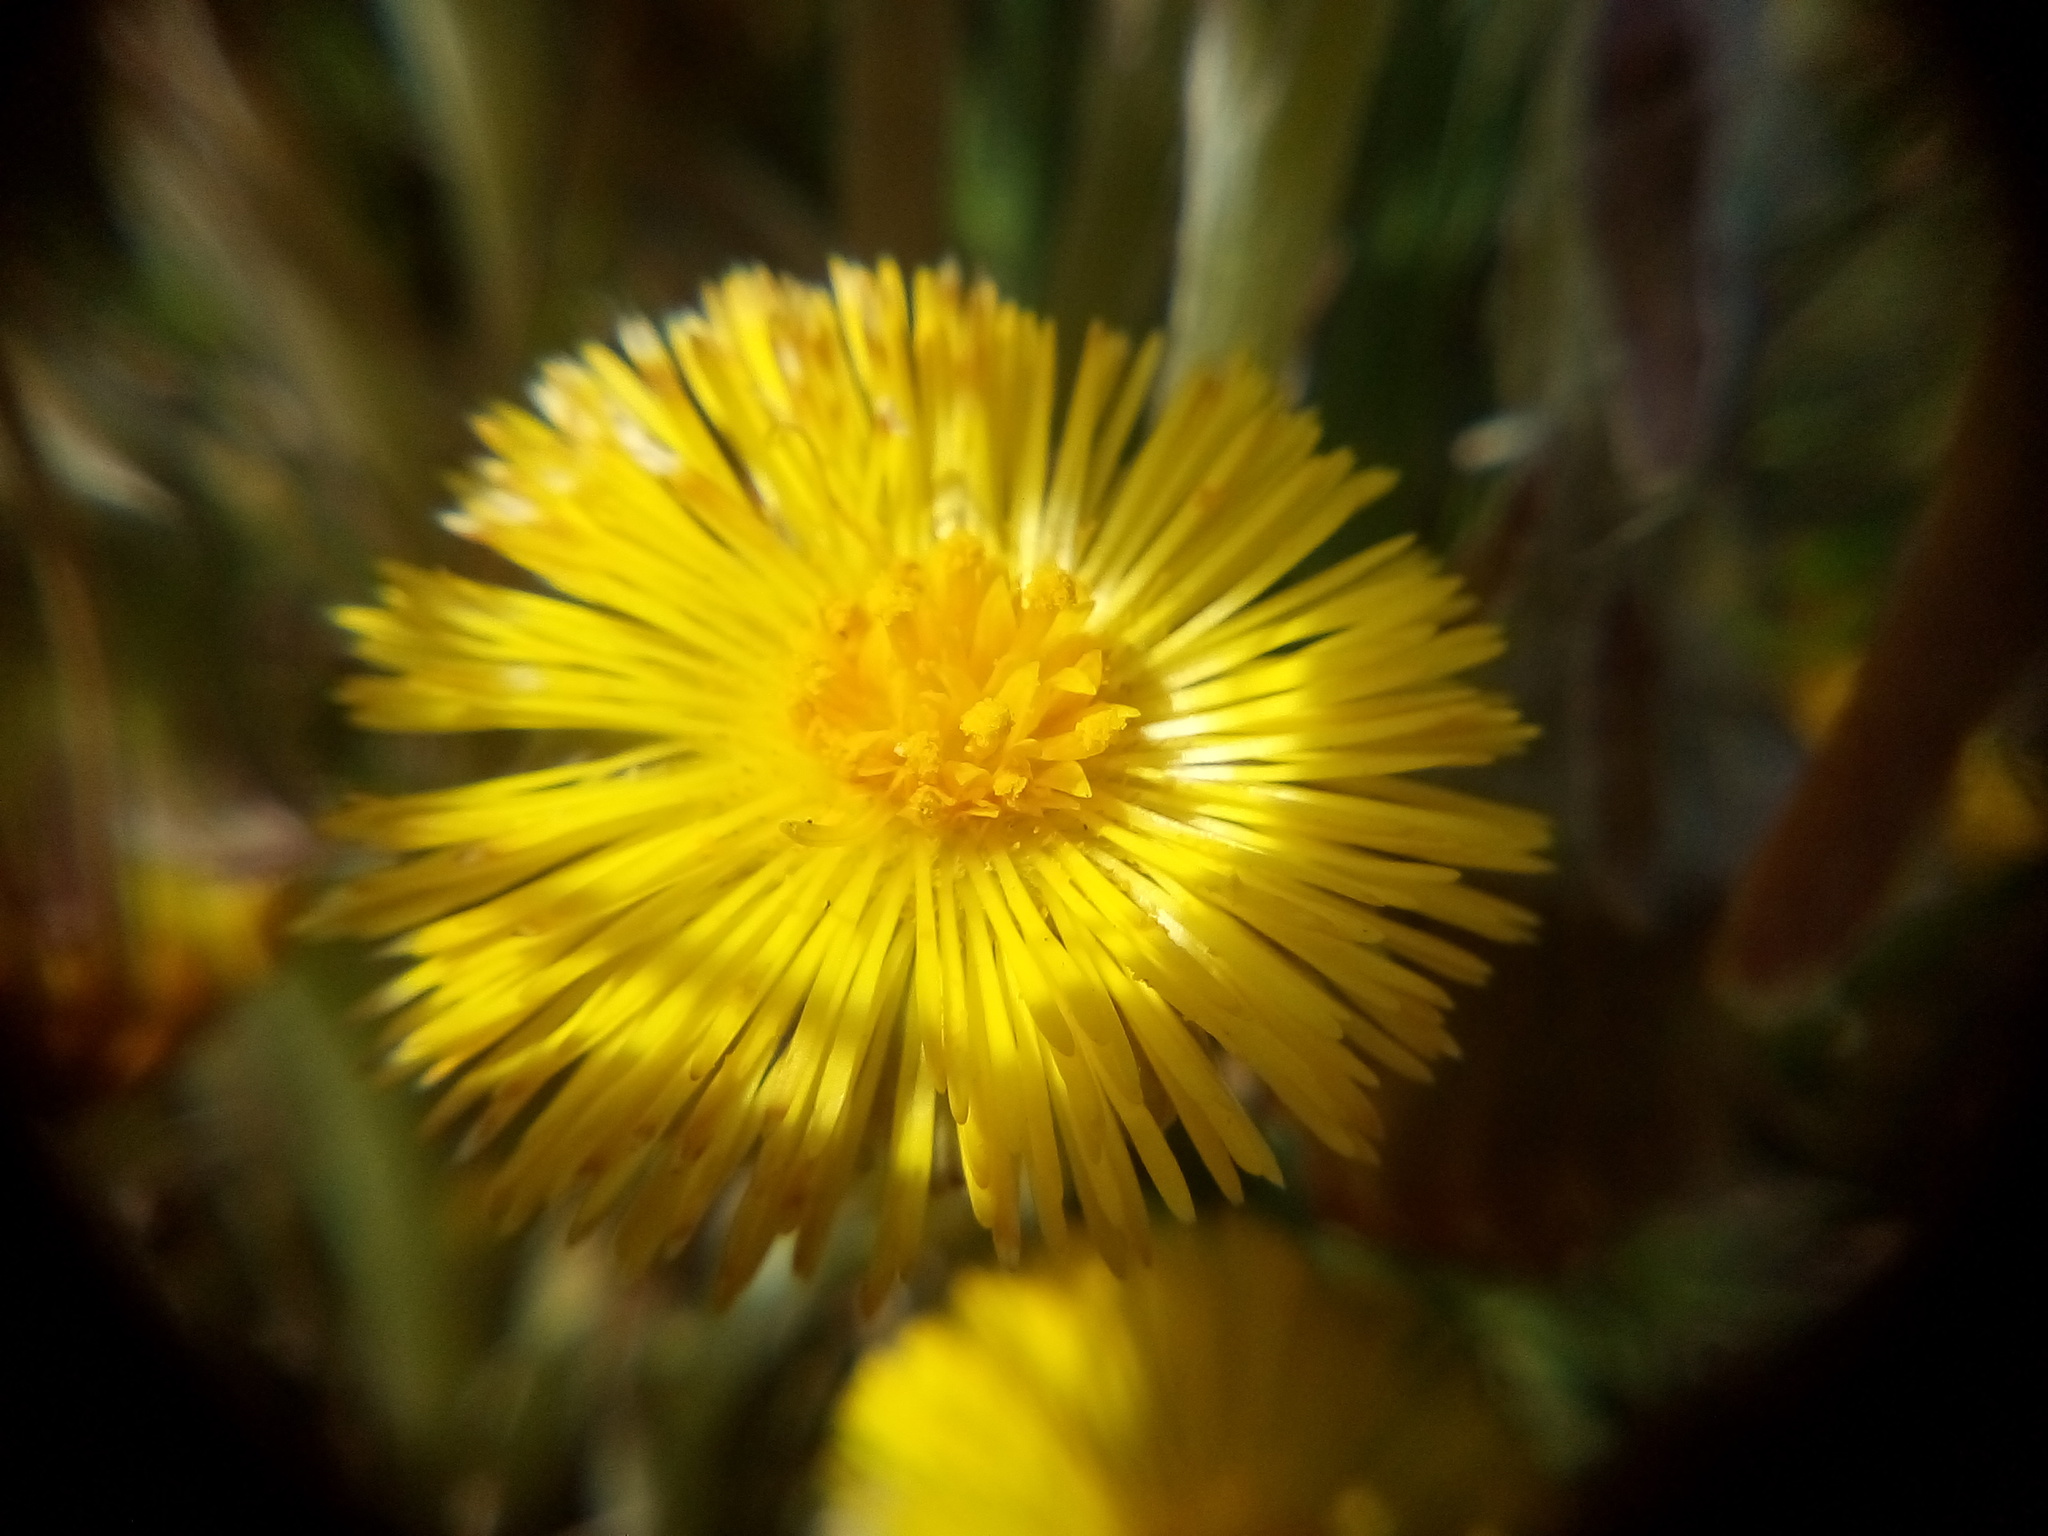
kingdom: Plantae
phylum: Tracheophyta
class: Magnoliopsida
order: Asterales
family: Asteraceae
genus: Tussilago
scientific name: Tussilago farfara
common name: Coltsfoot
